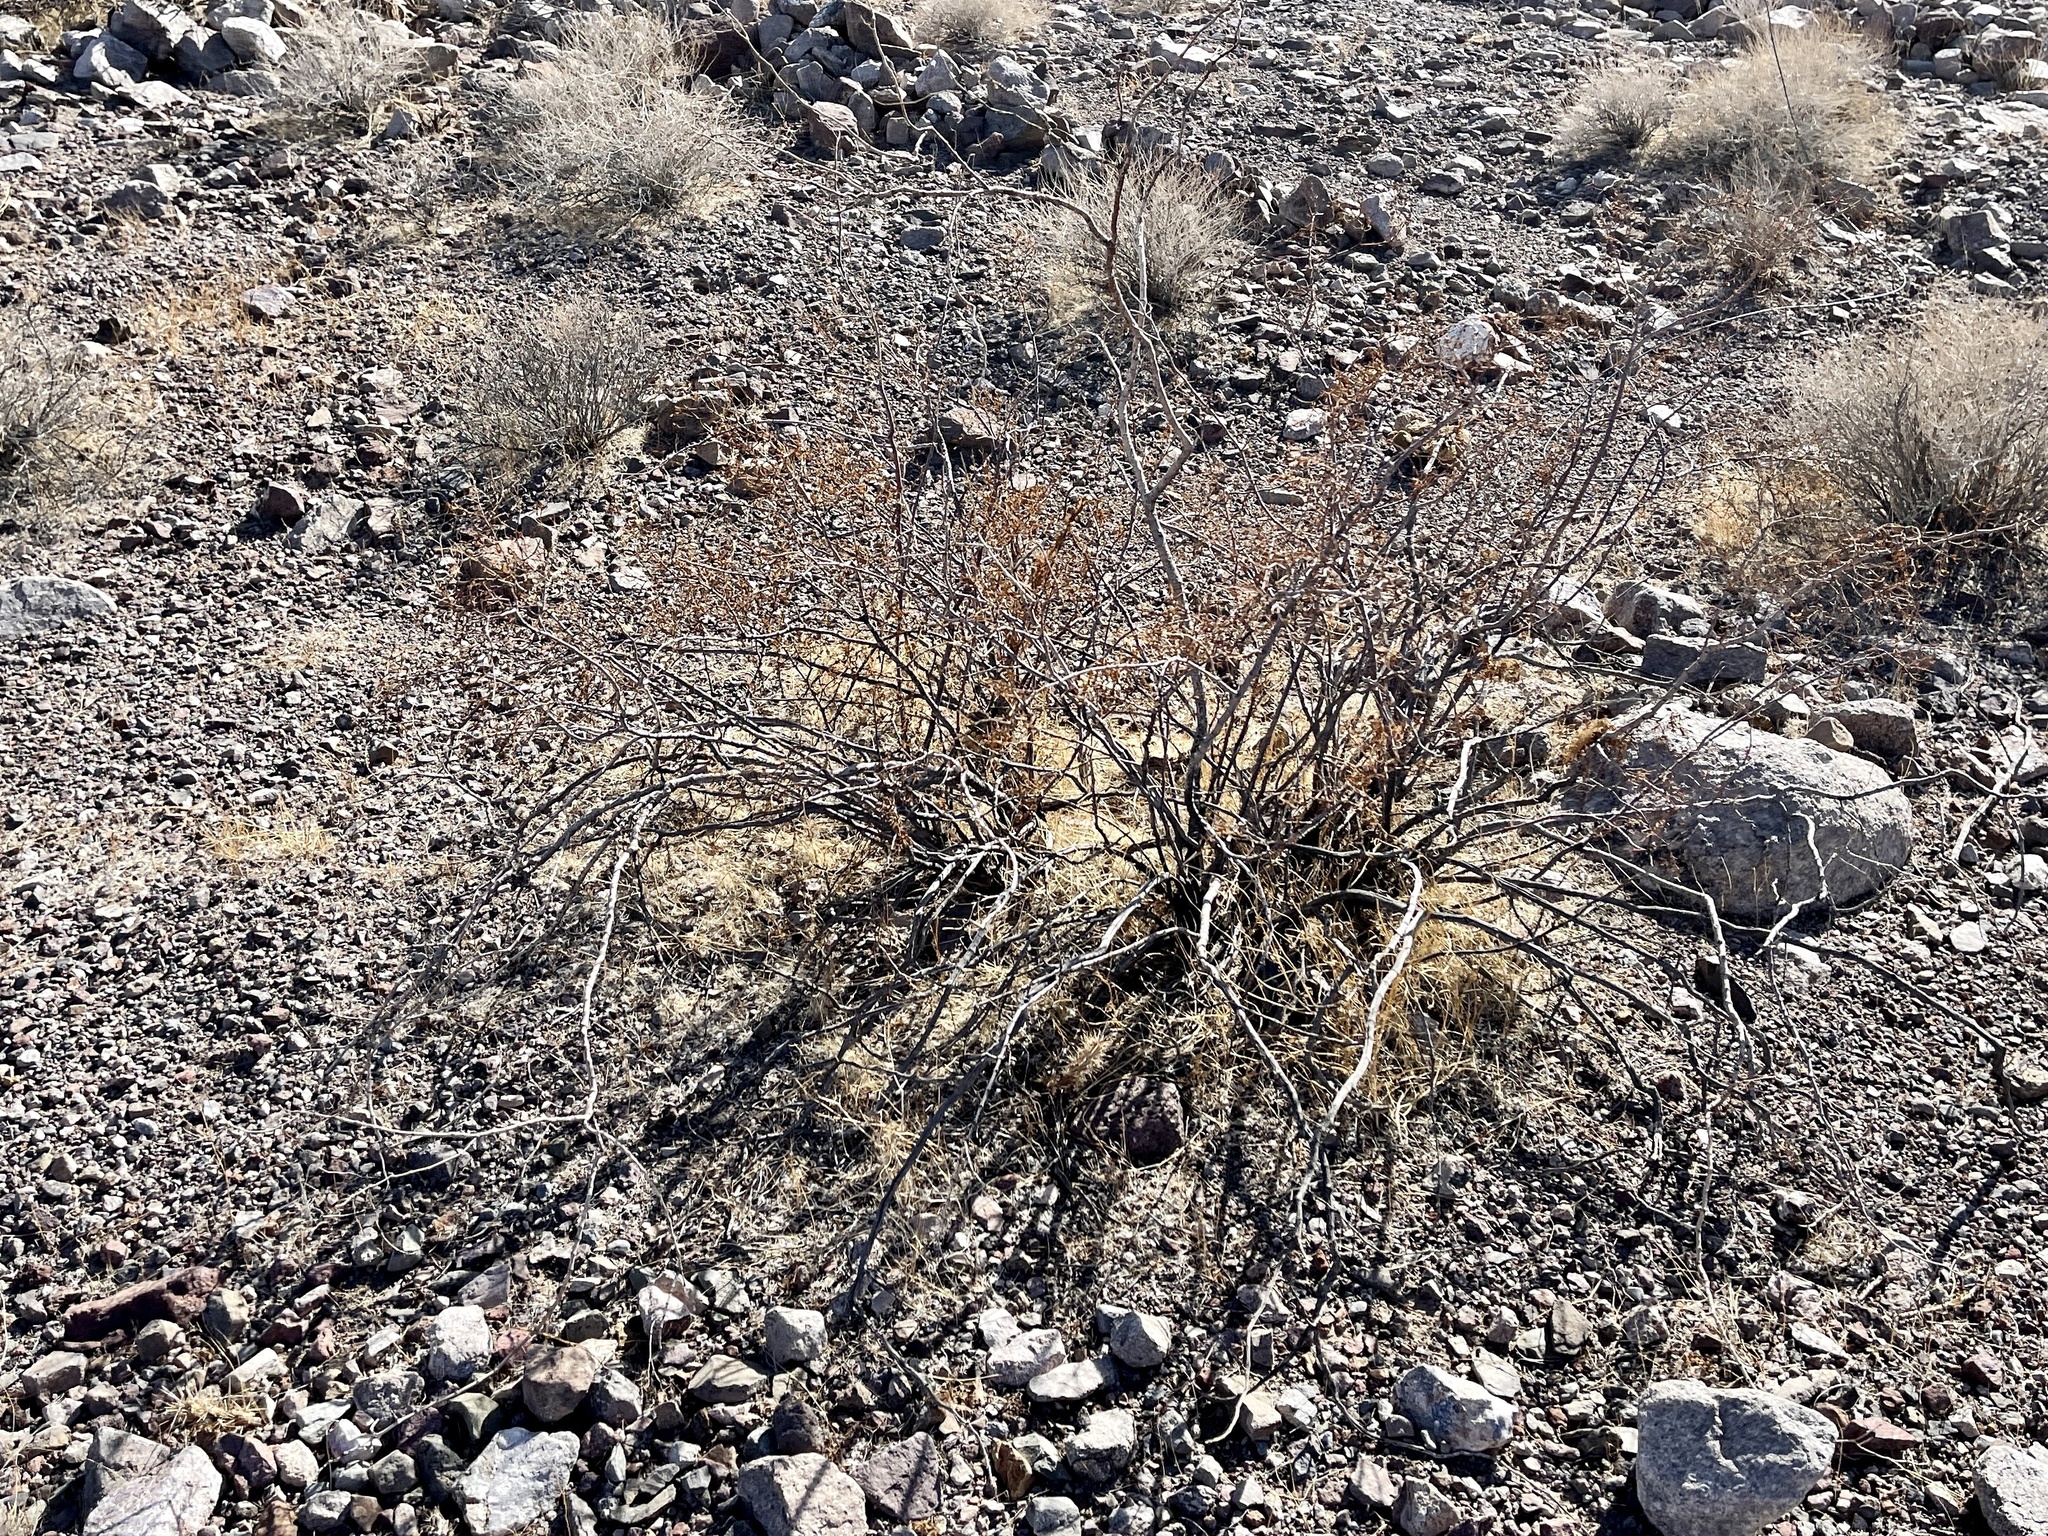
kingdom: Plantae
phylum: Tracheophyta
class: Magnoliopsida
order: Zygophyllales
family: Zygophyllaceae
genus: Larrea
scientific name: Larrea tridentata
